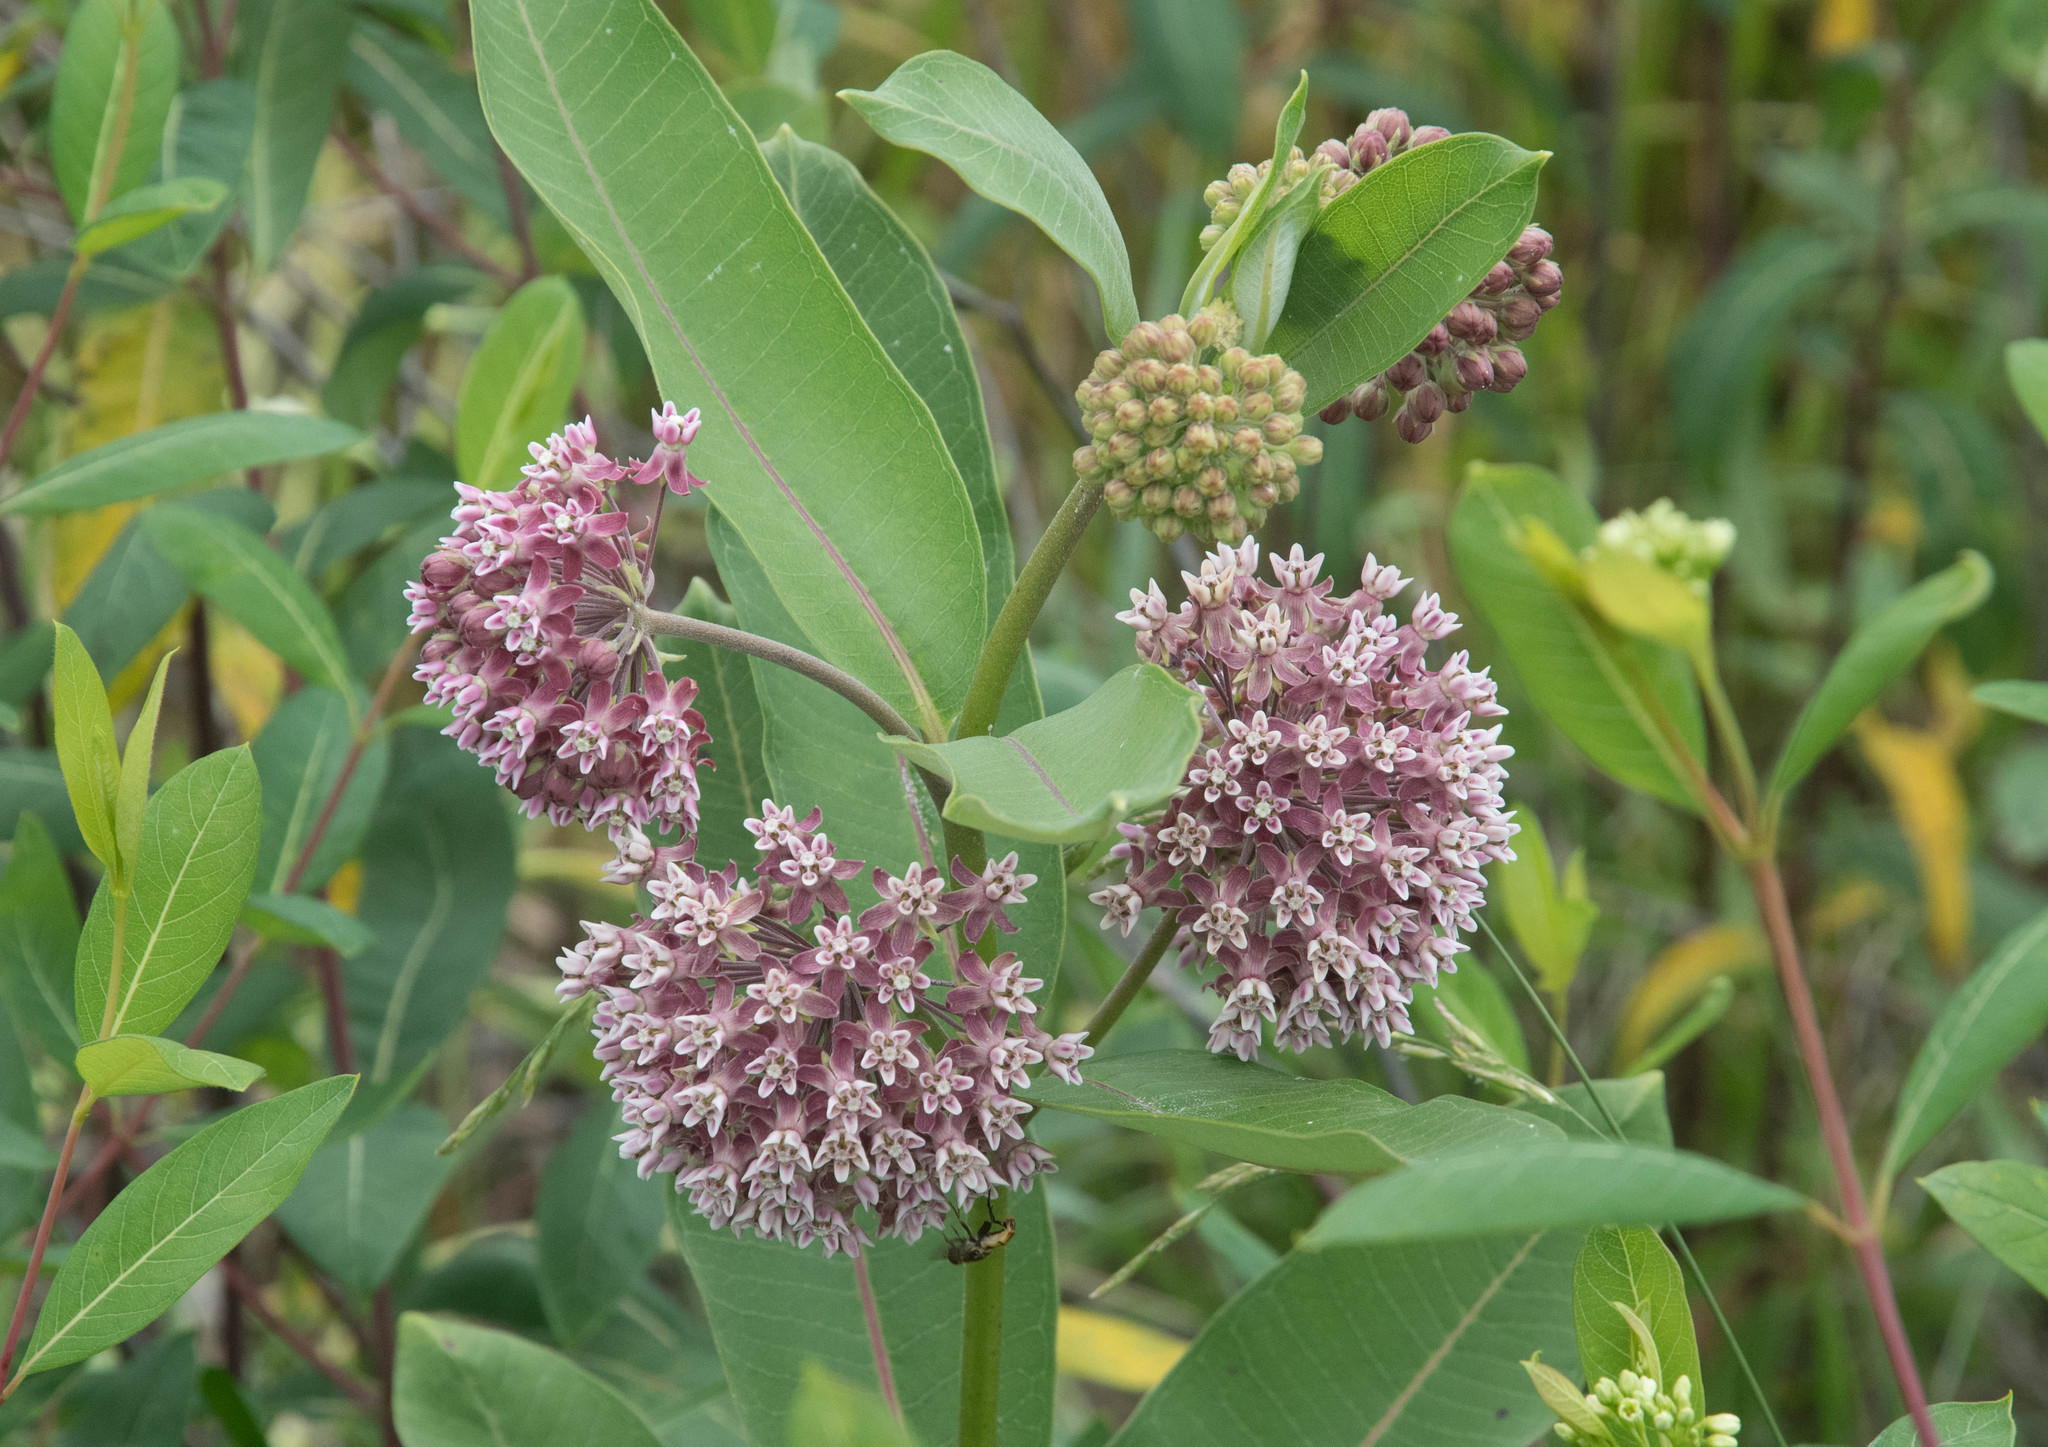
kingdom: Plantae
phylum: Tracheophyta
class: Magnoliopsida
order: Gentianales
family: Apocynaceae
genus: Asclepias
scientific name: Asclepias syriaca
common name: Common milkweed
